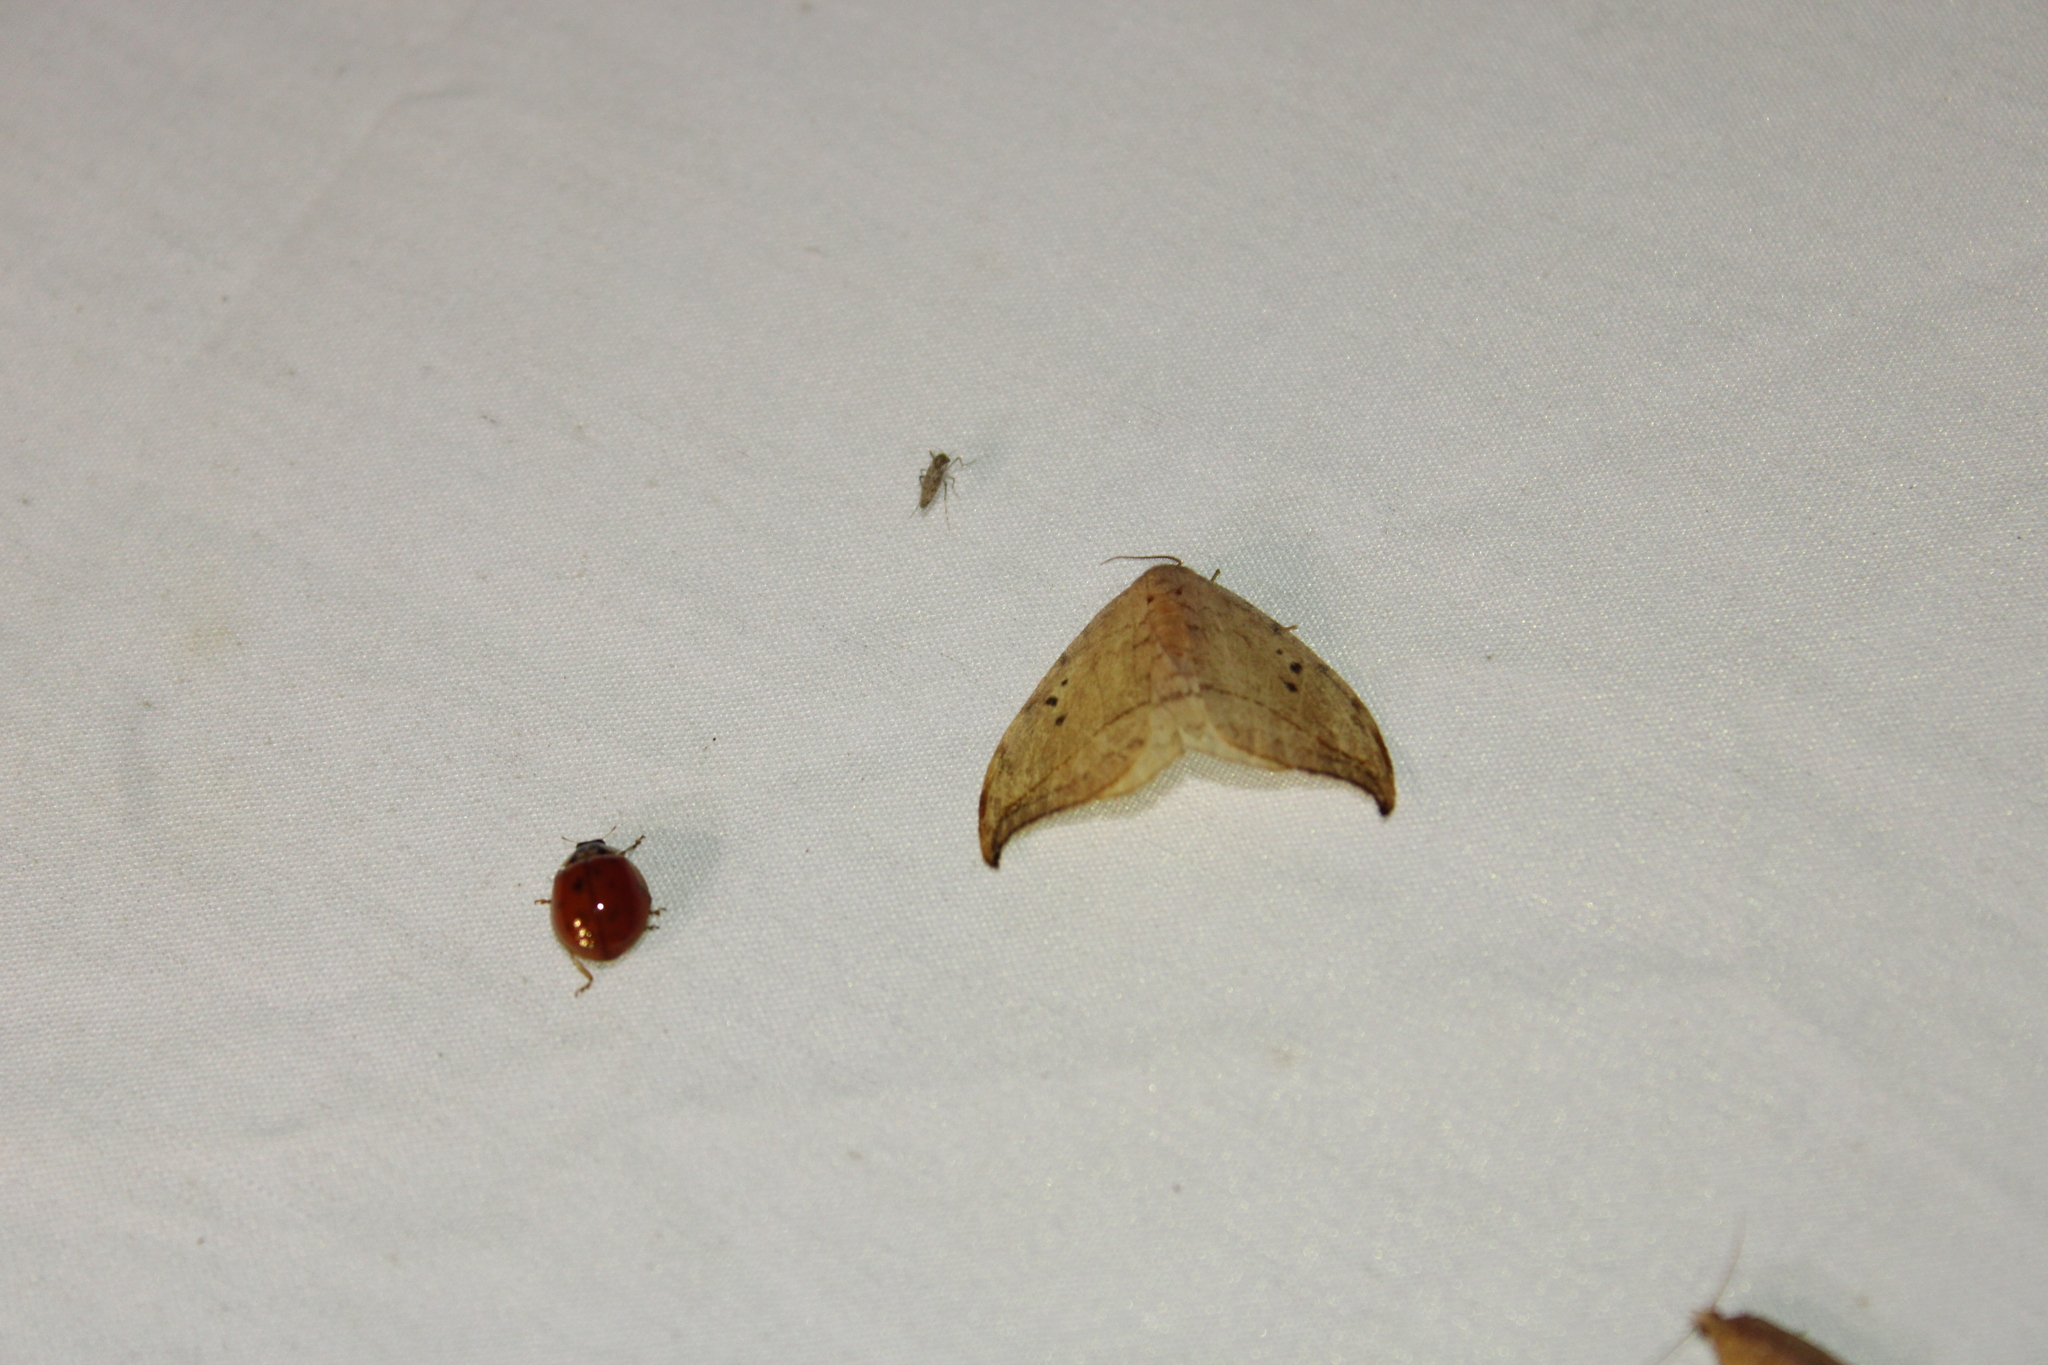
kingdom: Animalia
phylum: Arthropoda
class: Insecta
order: Lepidoptera
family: Drepanidae
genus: Drepana
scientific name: Drepana arcuata
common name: Arched hooktip moth
